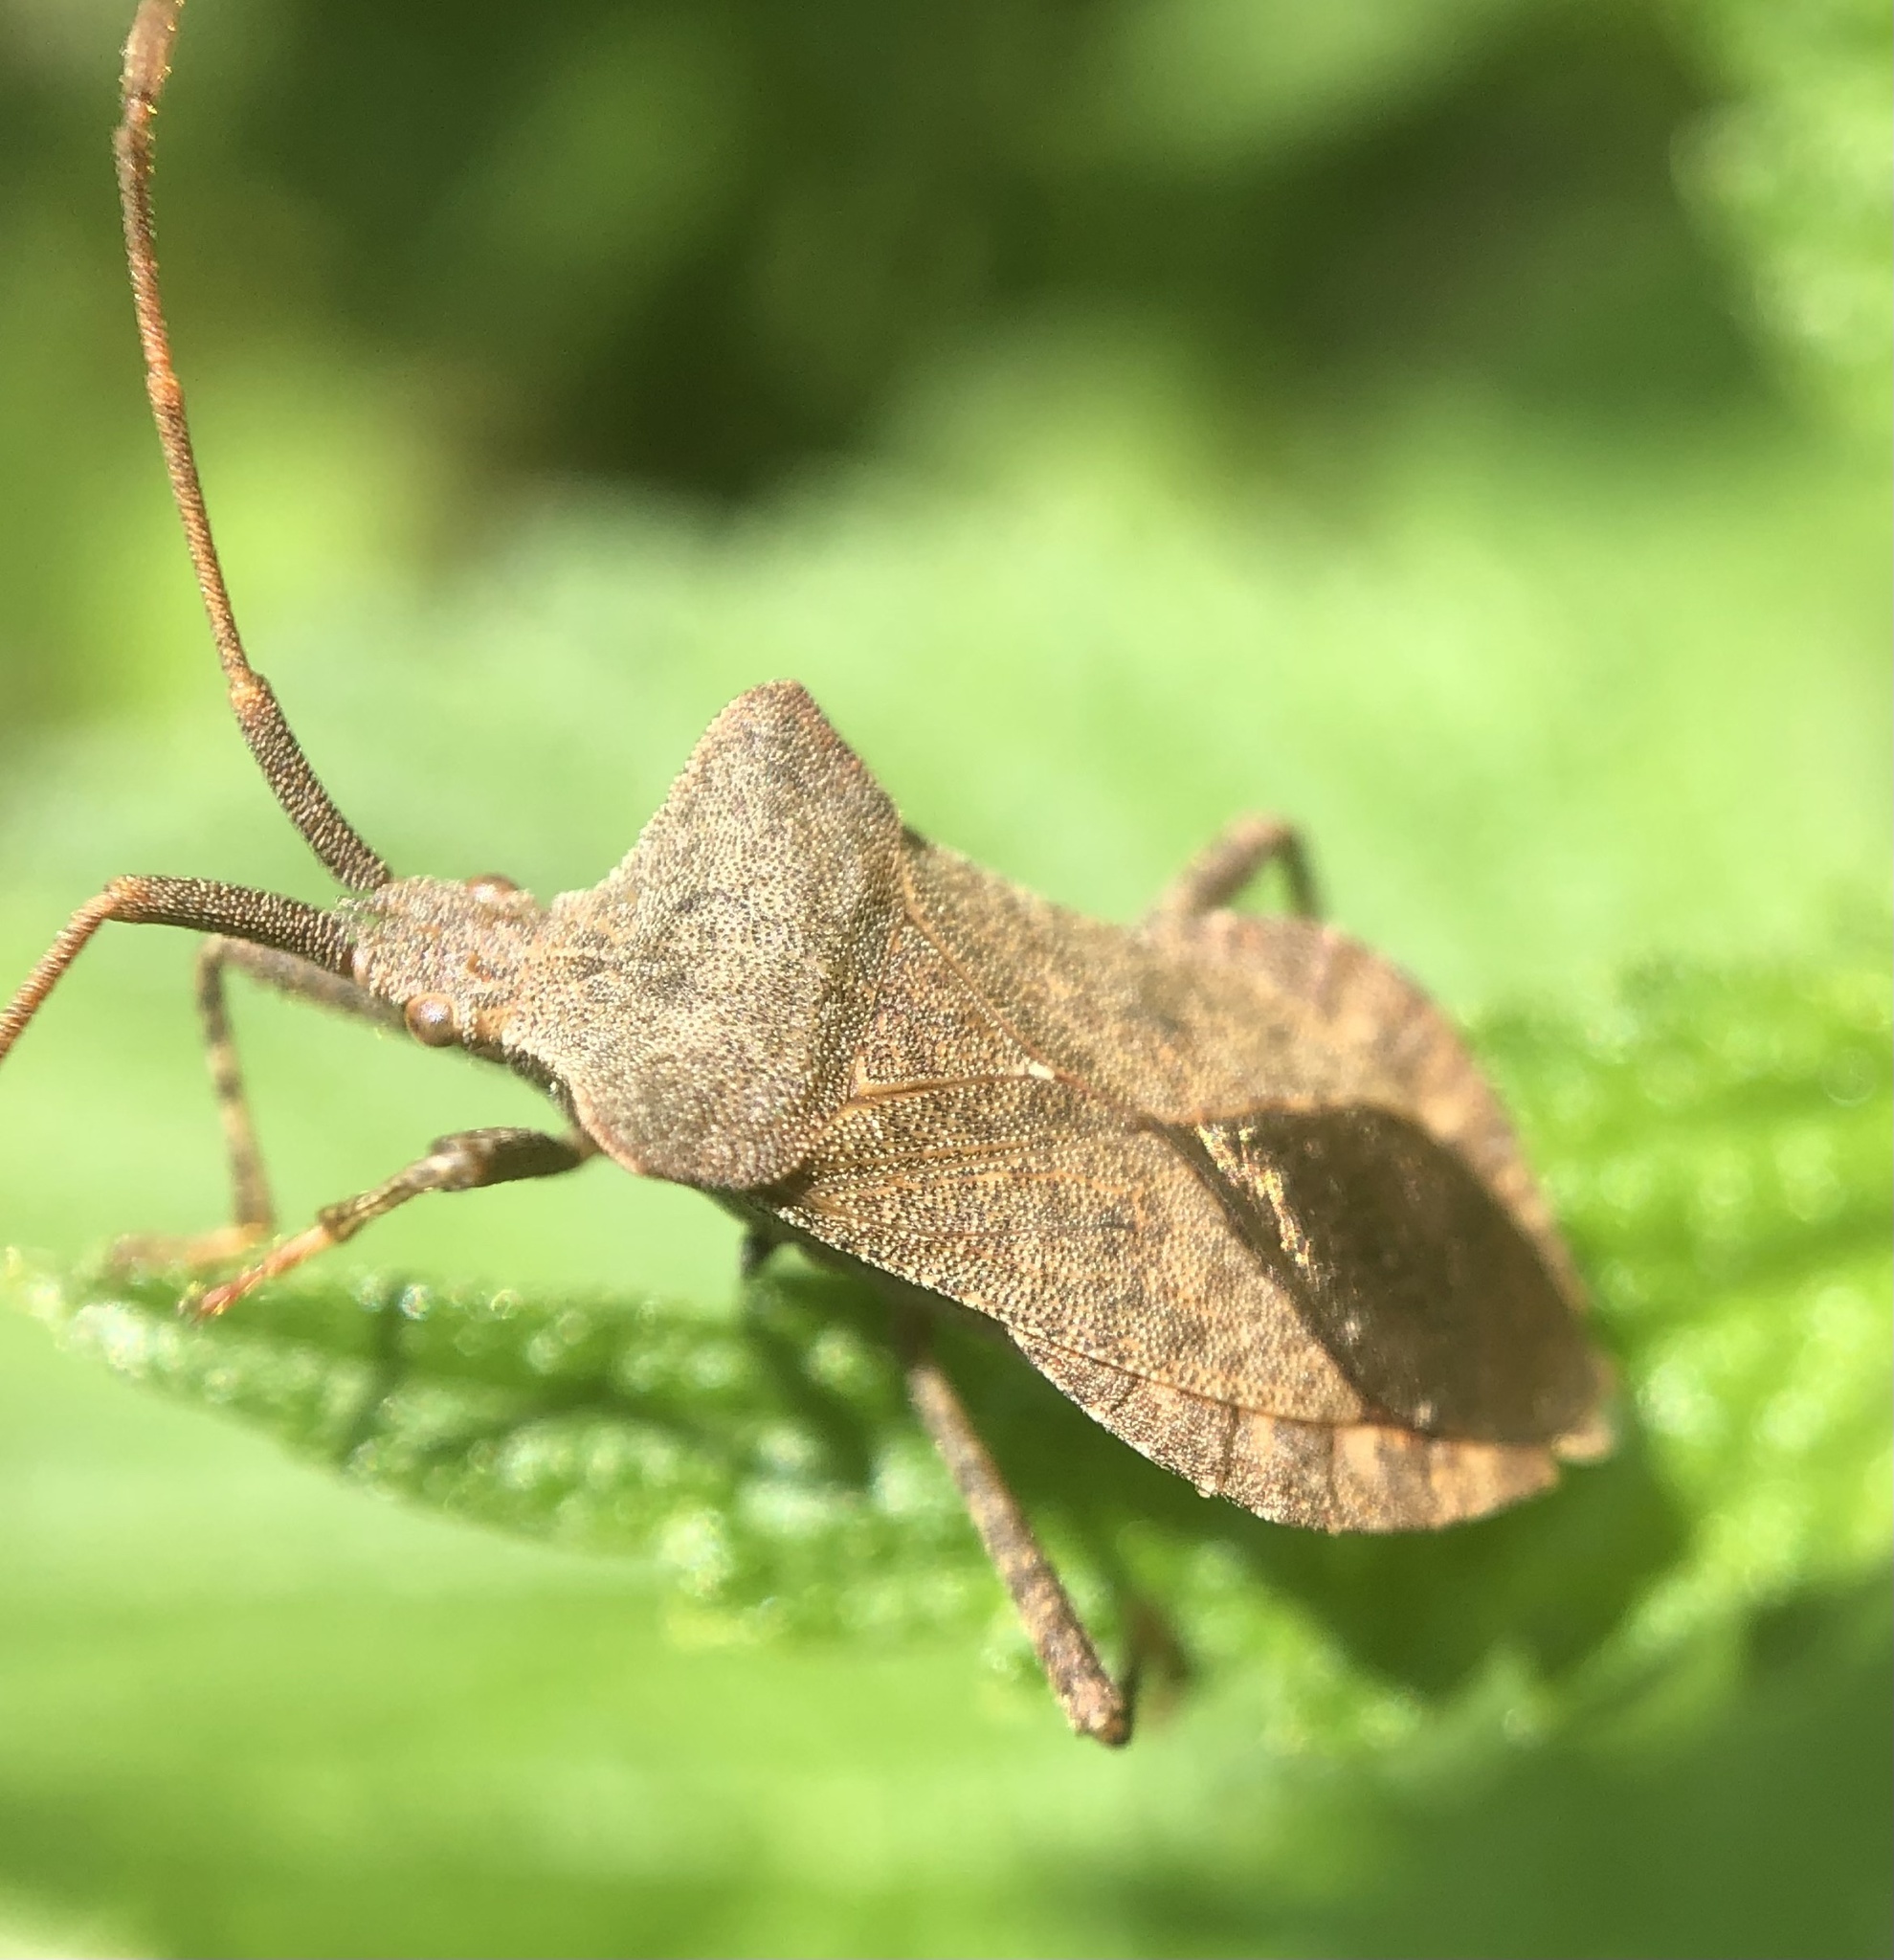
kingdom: Animalia
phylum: Arthropoda
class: Insecta
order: Hemiptera
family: Coreidae
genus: Coreus
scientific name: Coreus marginatus
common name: Dock bug
